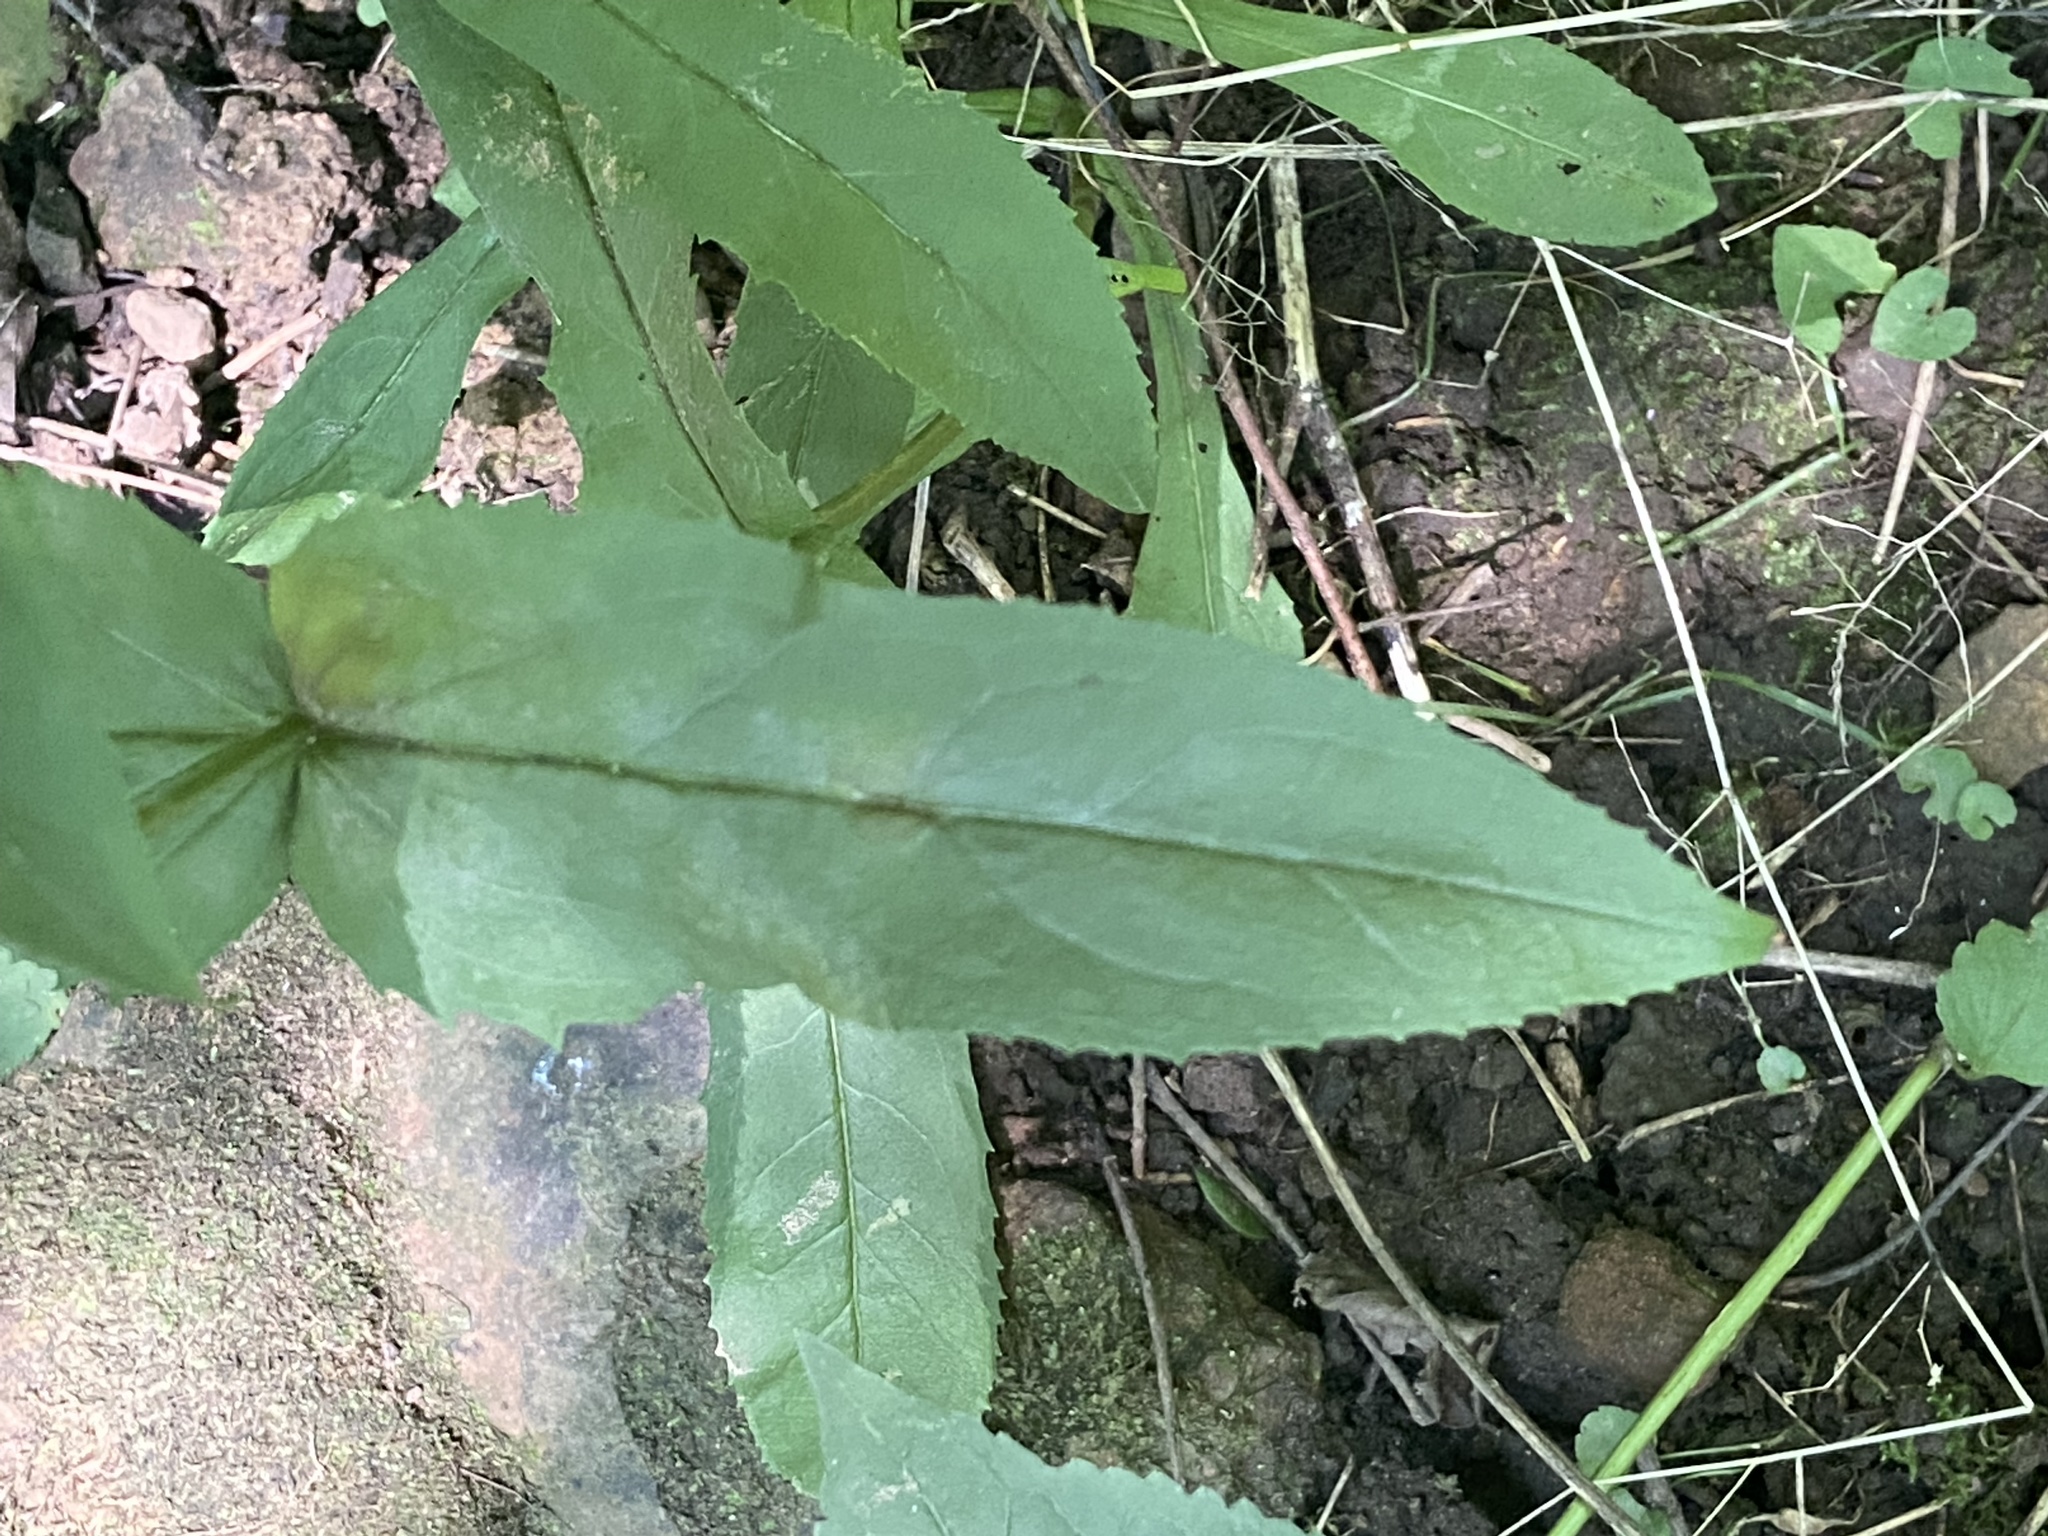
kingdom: Plantae
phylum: Tracheophyta
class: Magnoliopsida
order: Lamiales
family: Plantaginaceae
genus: Penstemon
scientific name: Penstemon kralii
